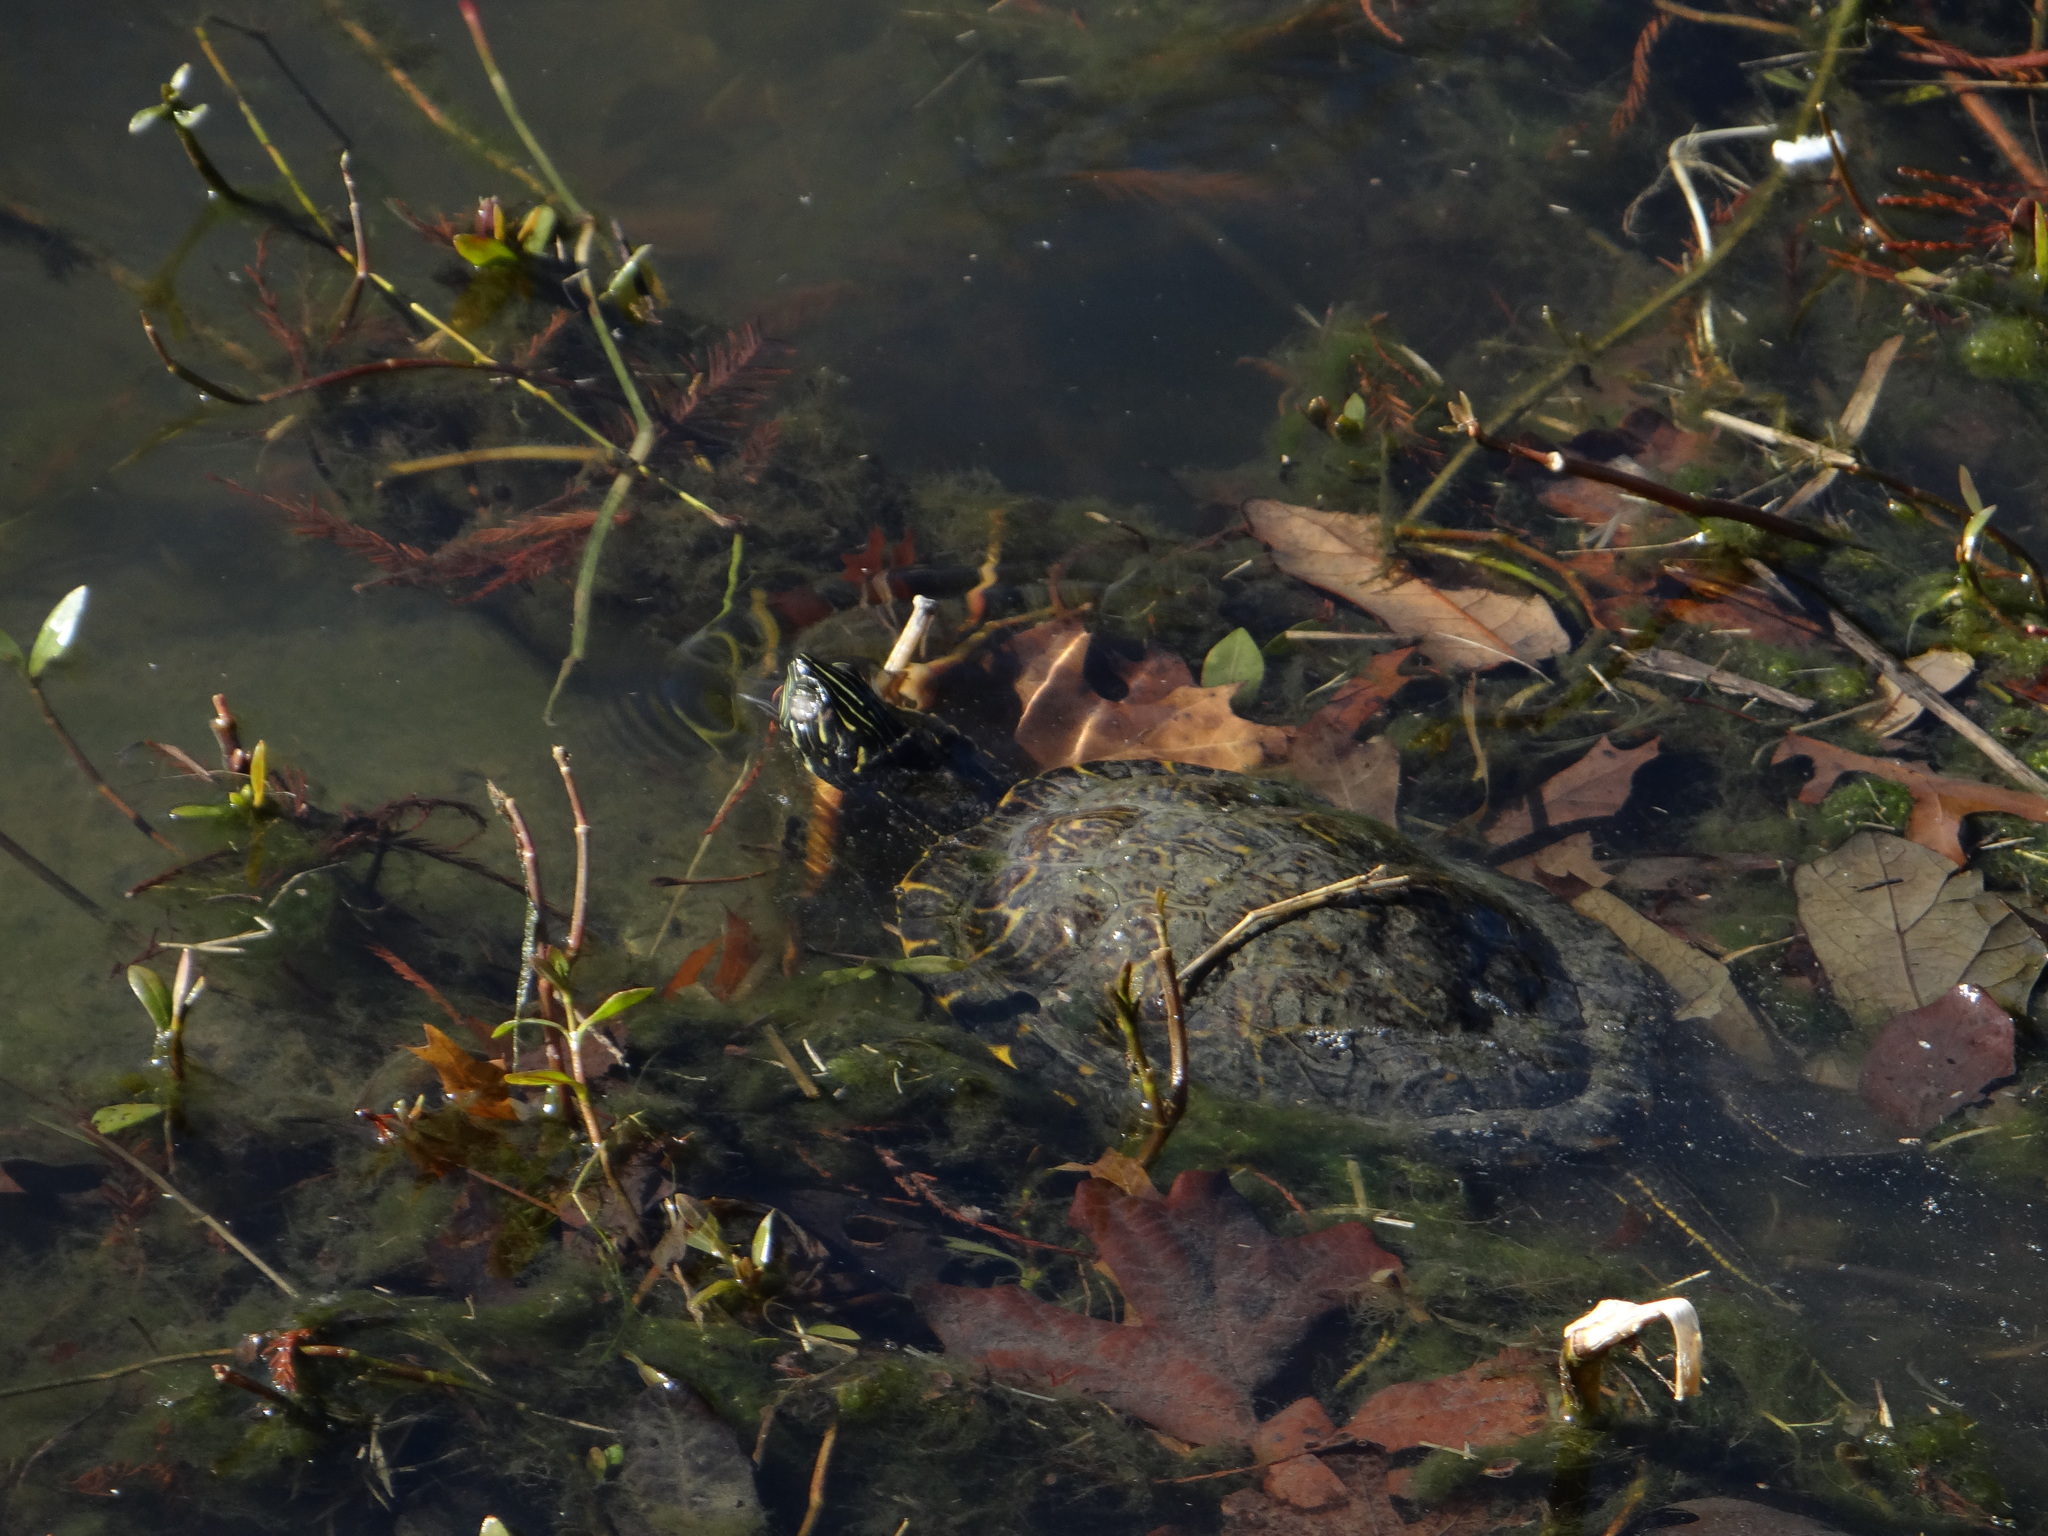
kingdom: Animalia
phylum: Chordata
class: Testudines
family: Emydidae
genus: Pseudemys
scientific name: Pseudemys concinna
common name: Eastern river cooter
